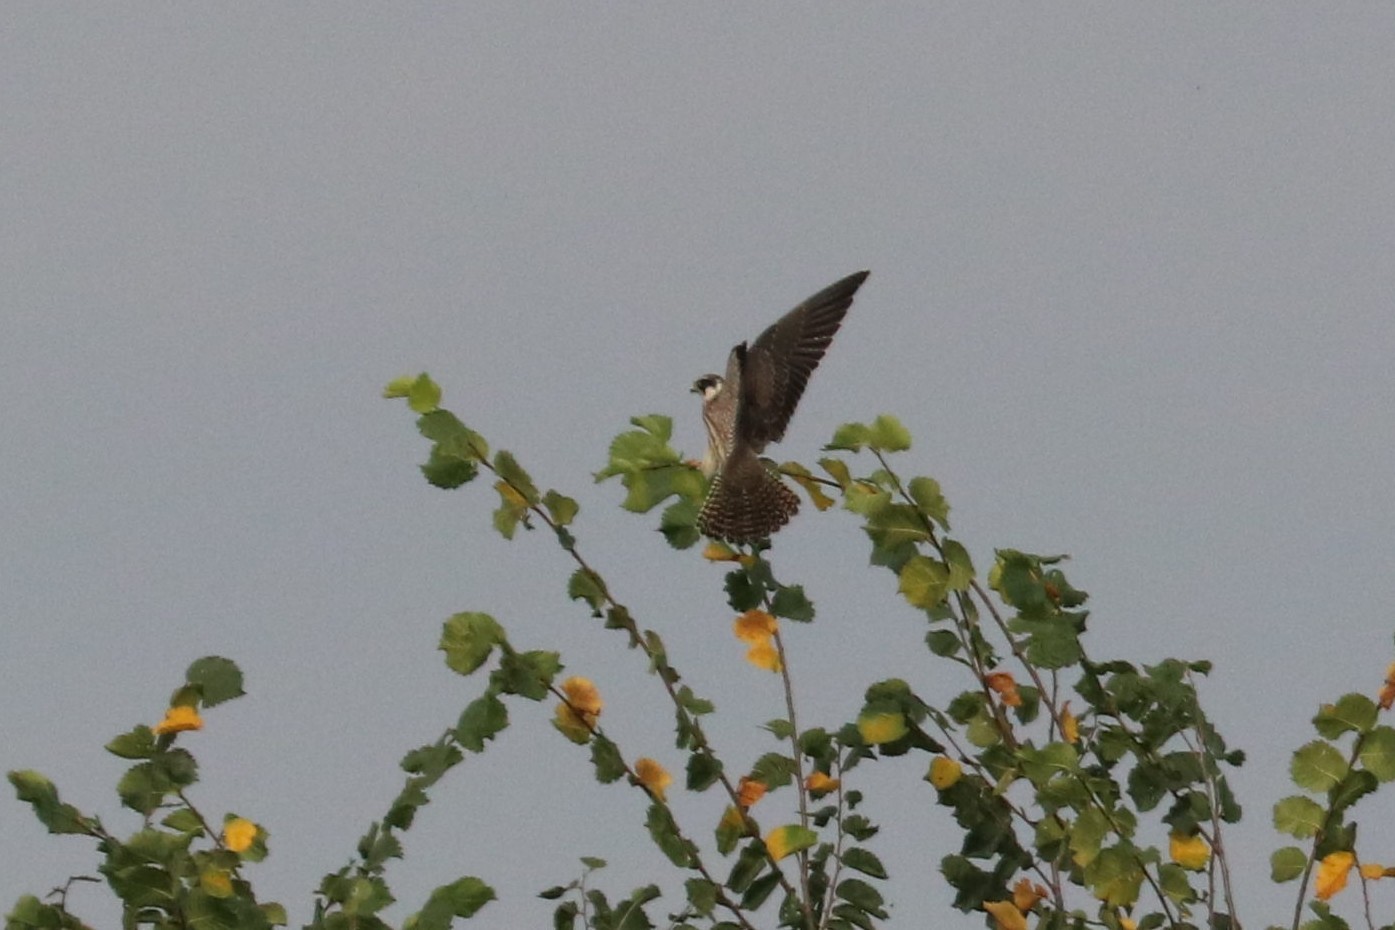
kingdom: Animalia
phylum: Chordata
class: Aves
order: Falconiformes
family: Falconidae
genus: Falco
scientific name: Falco subbuteo
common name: Eurasian hobby
